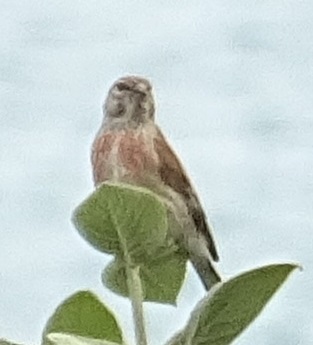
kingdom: Animalia
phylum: Chordata
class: Aves
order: Passeriformes
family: Fringillidae
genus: Linaria
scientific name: Linaria cannabina
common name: Common linnet
